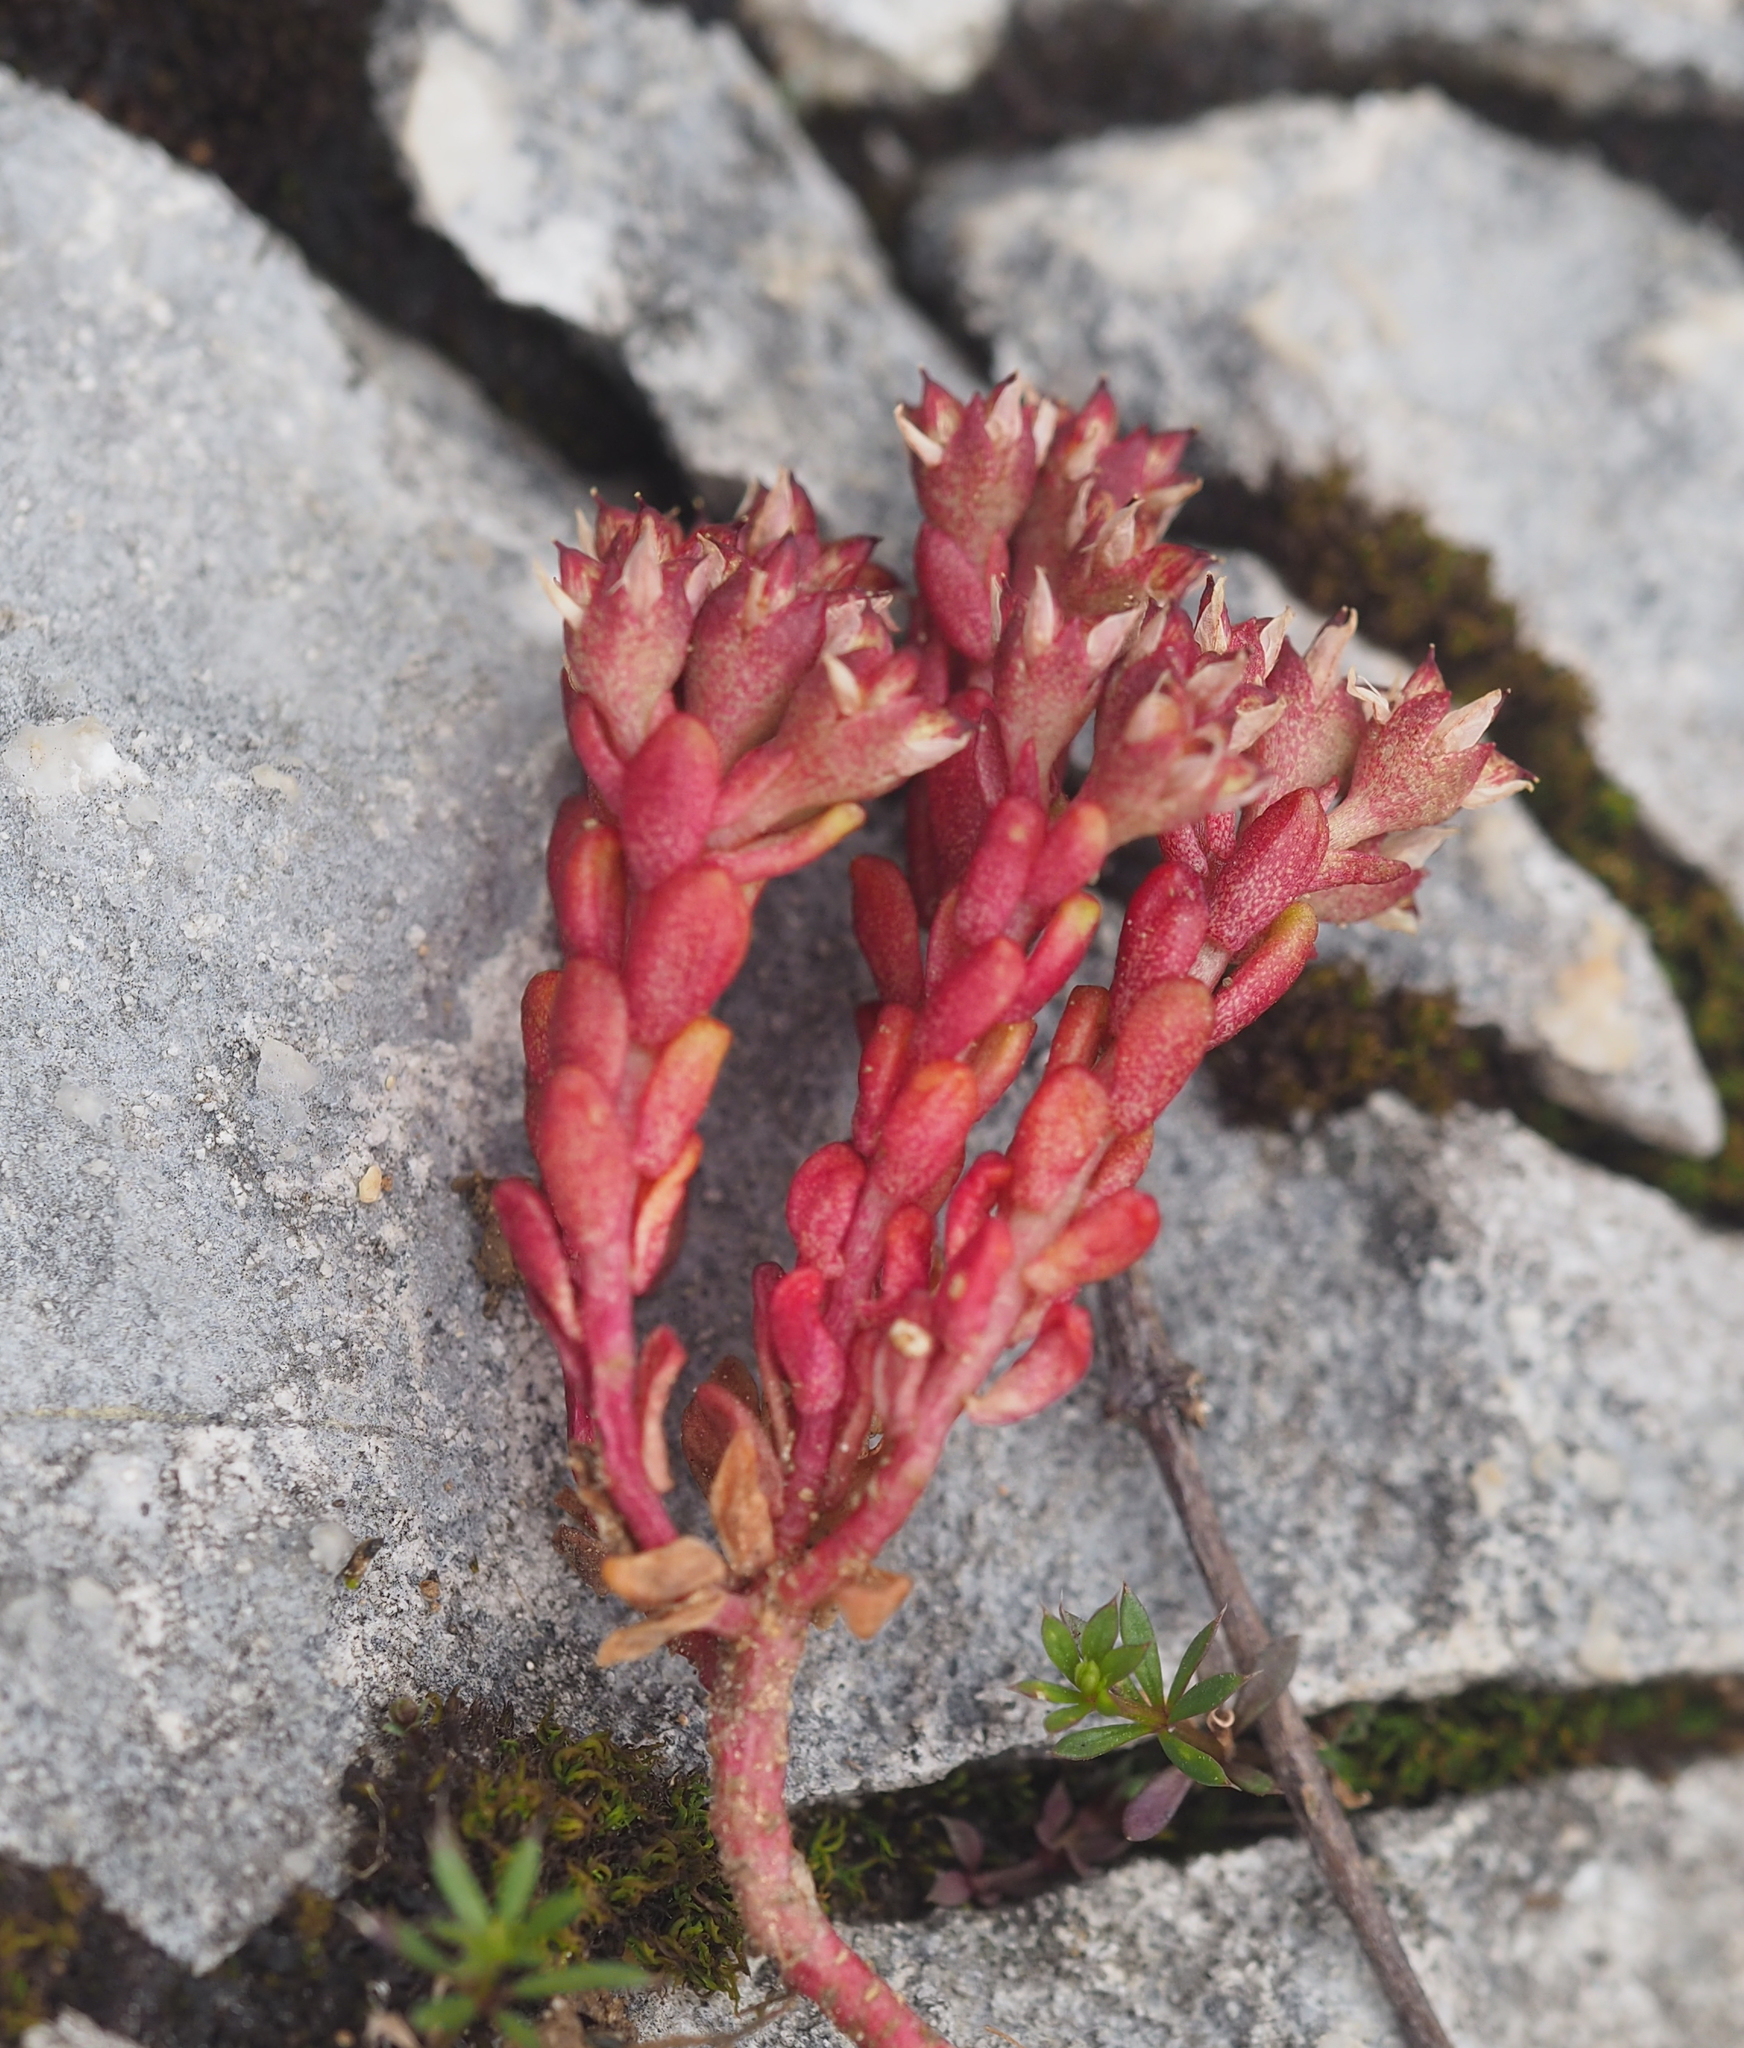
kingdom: Plantae
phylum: Tracheophyta
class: Magnoliopsida
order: Saxifragales
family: Crassulaceae
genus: Sedum
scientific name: Sedum atratum
